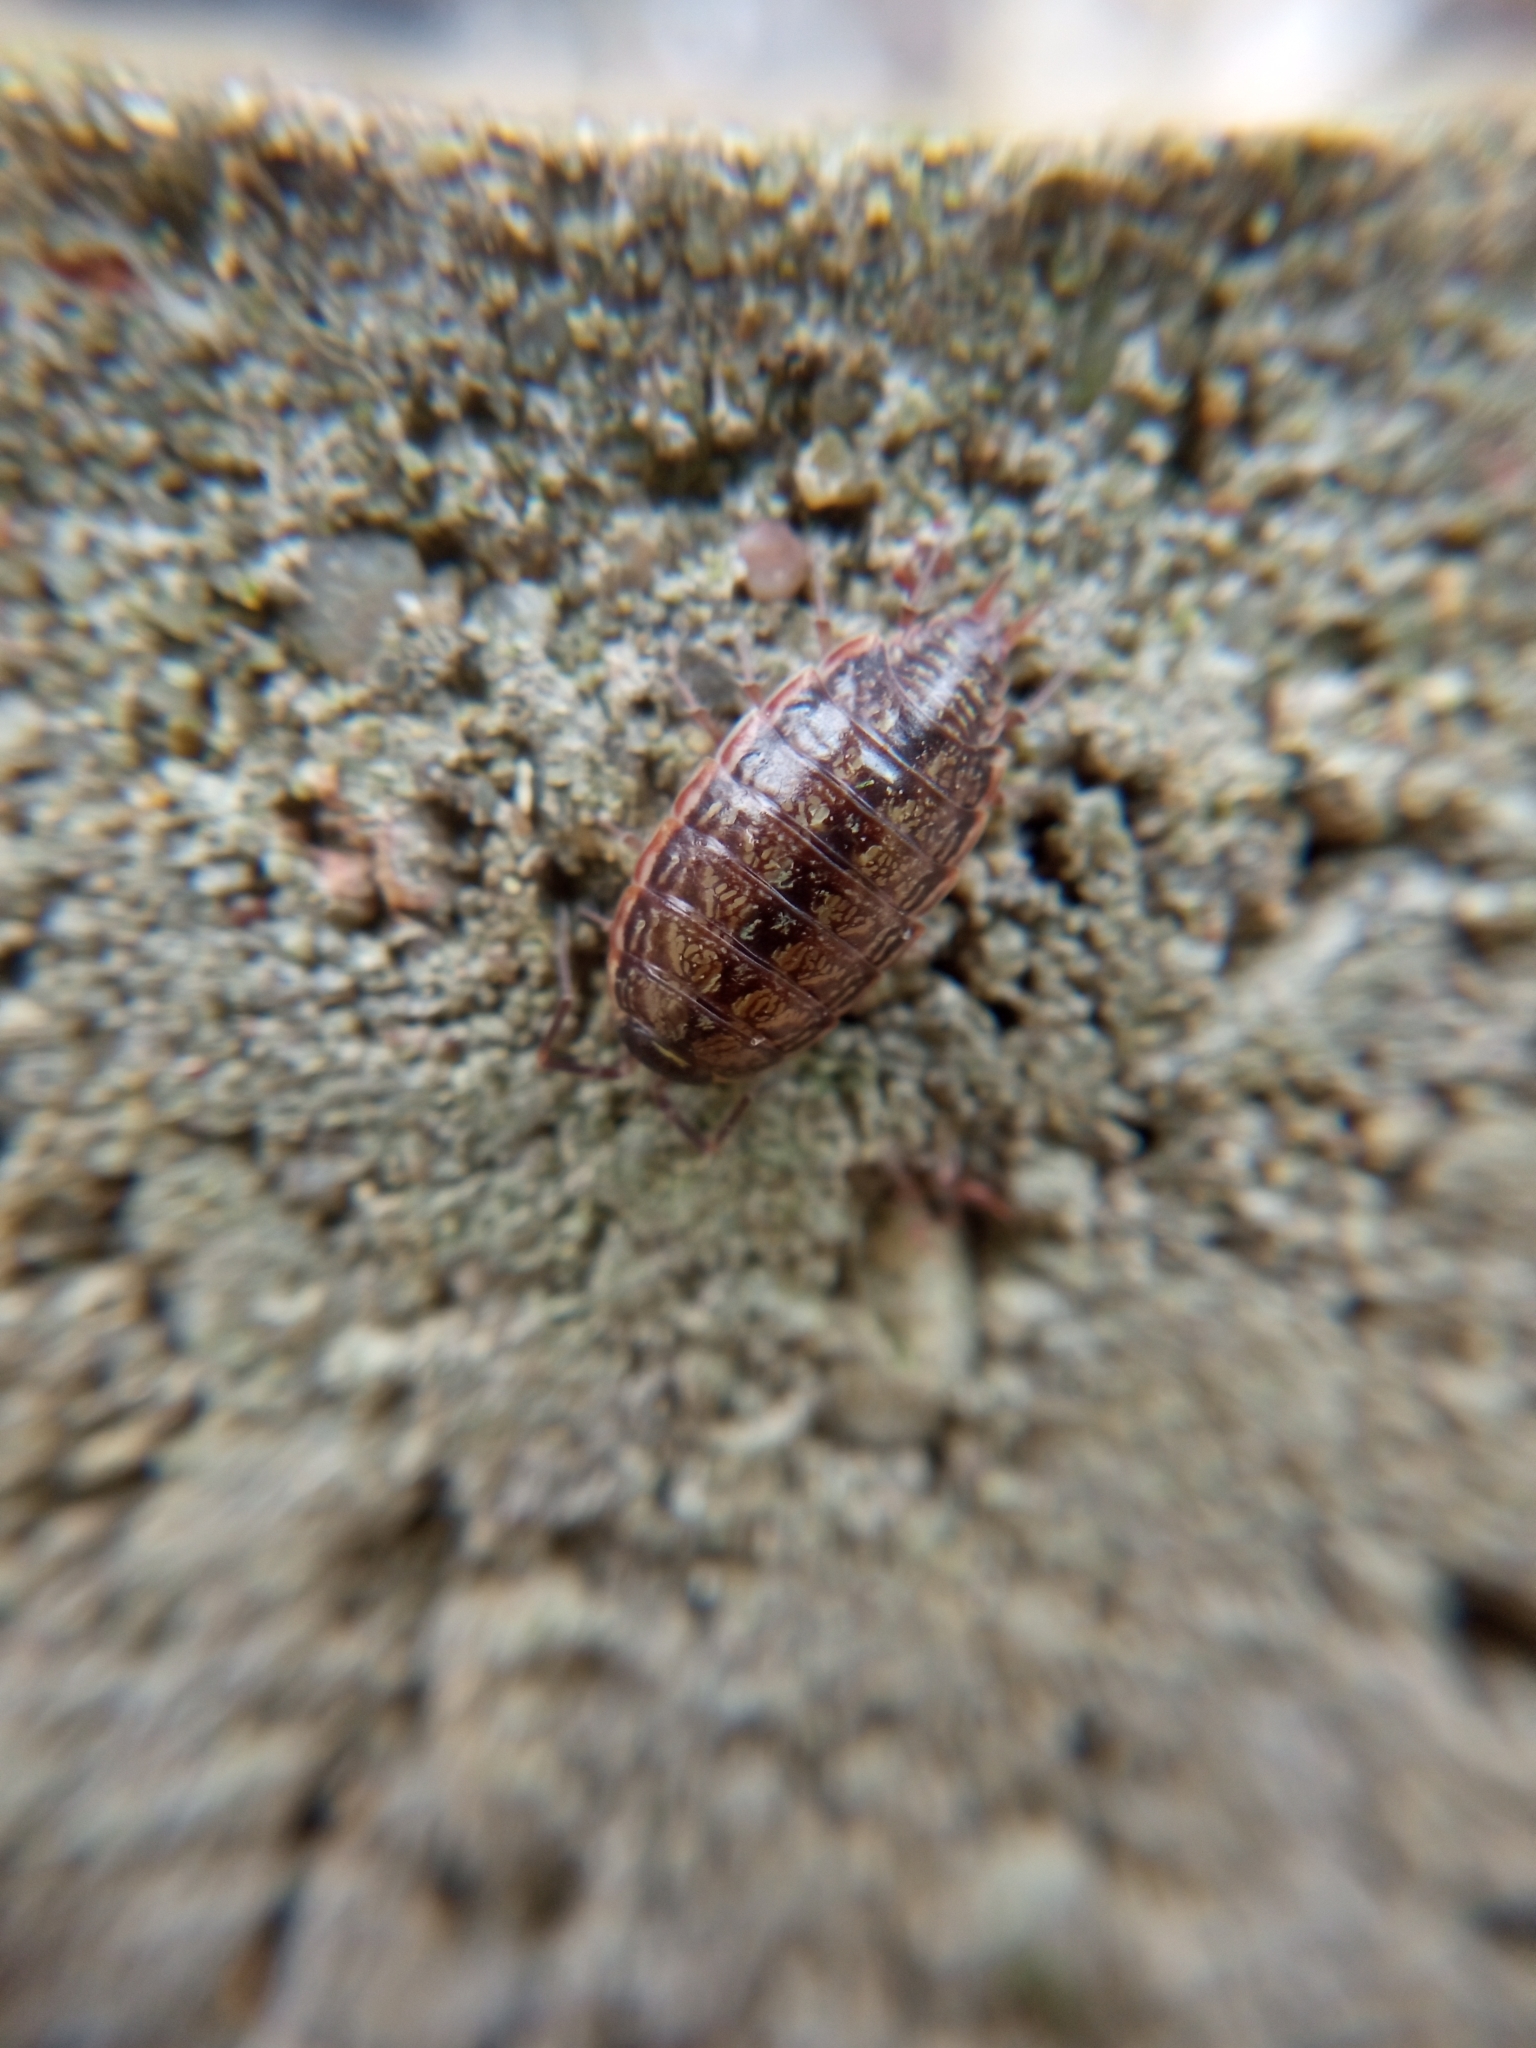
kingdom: Animalia
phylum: Arthropoda
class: Malacostraca
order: Isopoda
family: Philosciidae
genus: Philoscia
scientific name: Philoscia muscorum
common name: Common striped woodlouse
